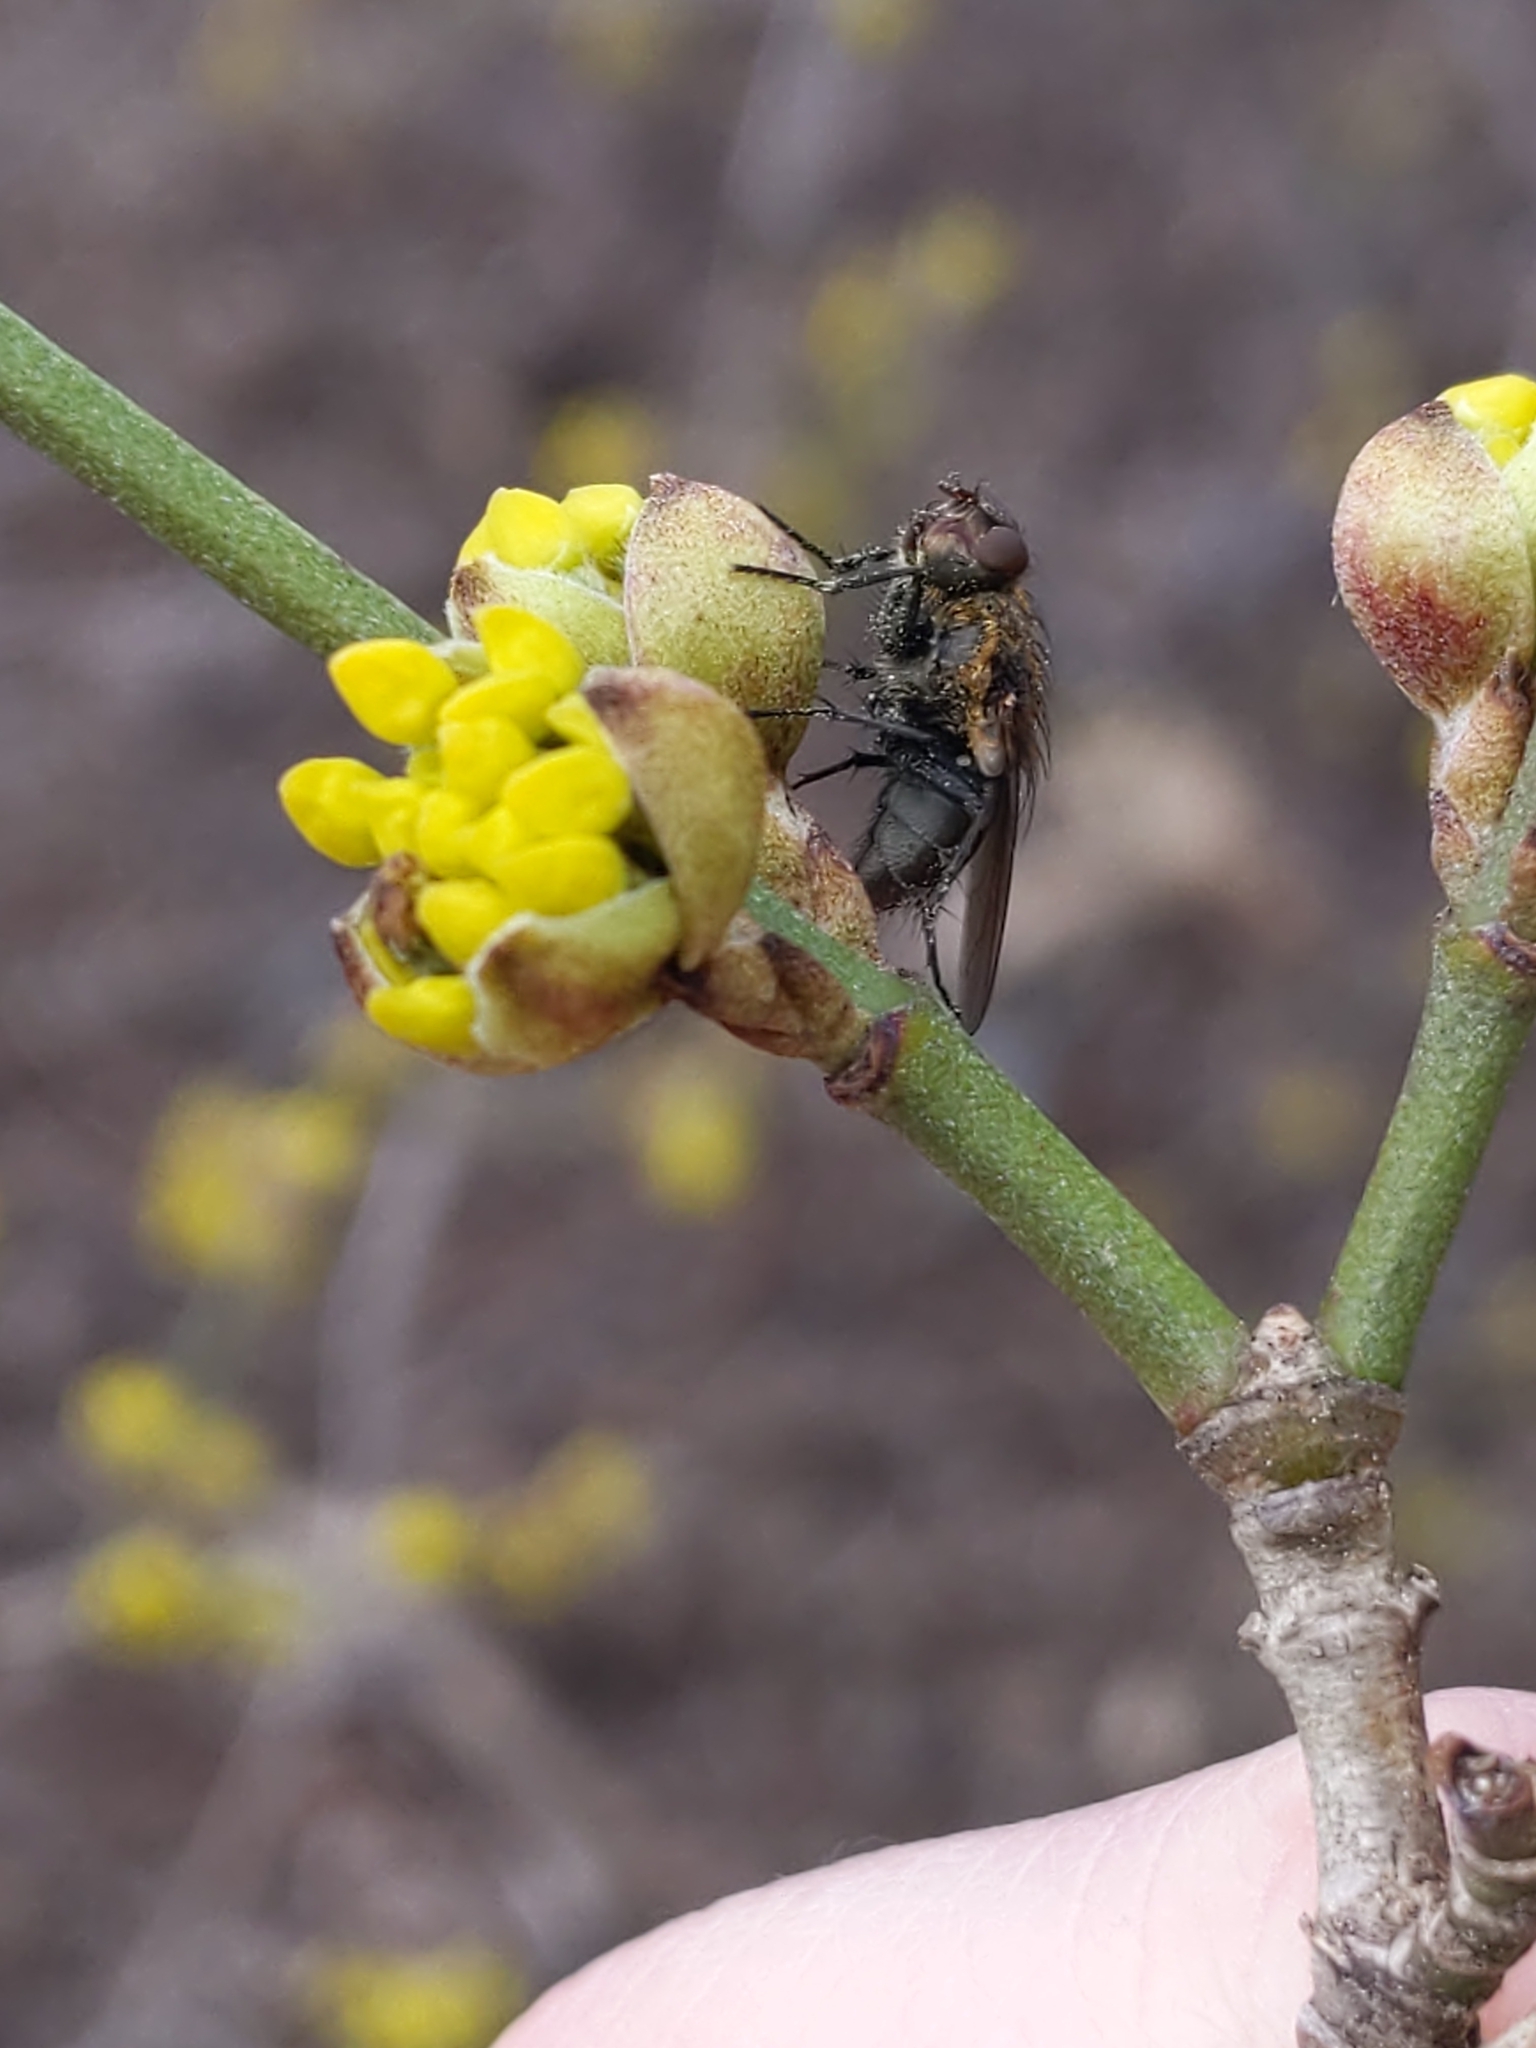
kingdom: Animalia
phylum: Arthropoda
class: Insecta
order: Diptera
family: Polleniidae
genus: Pollenia
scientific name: Pollenia
